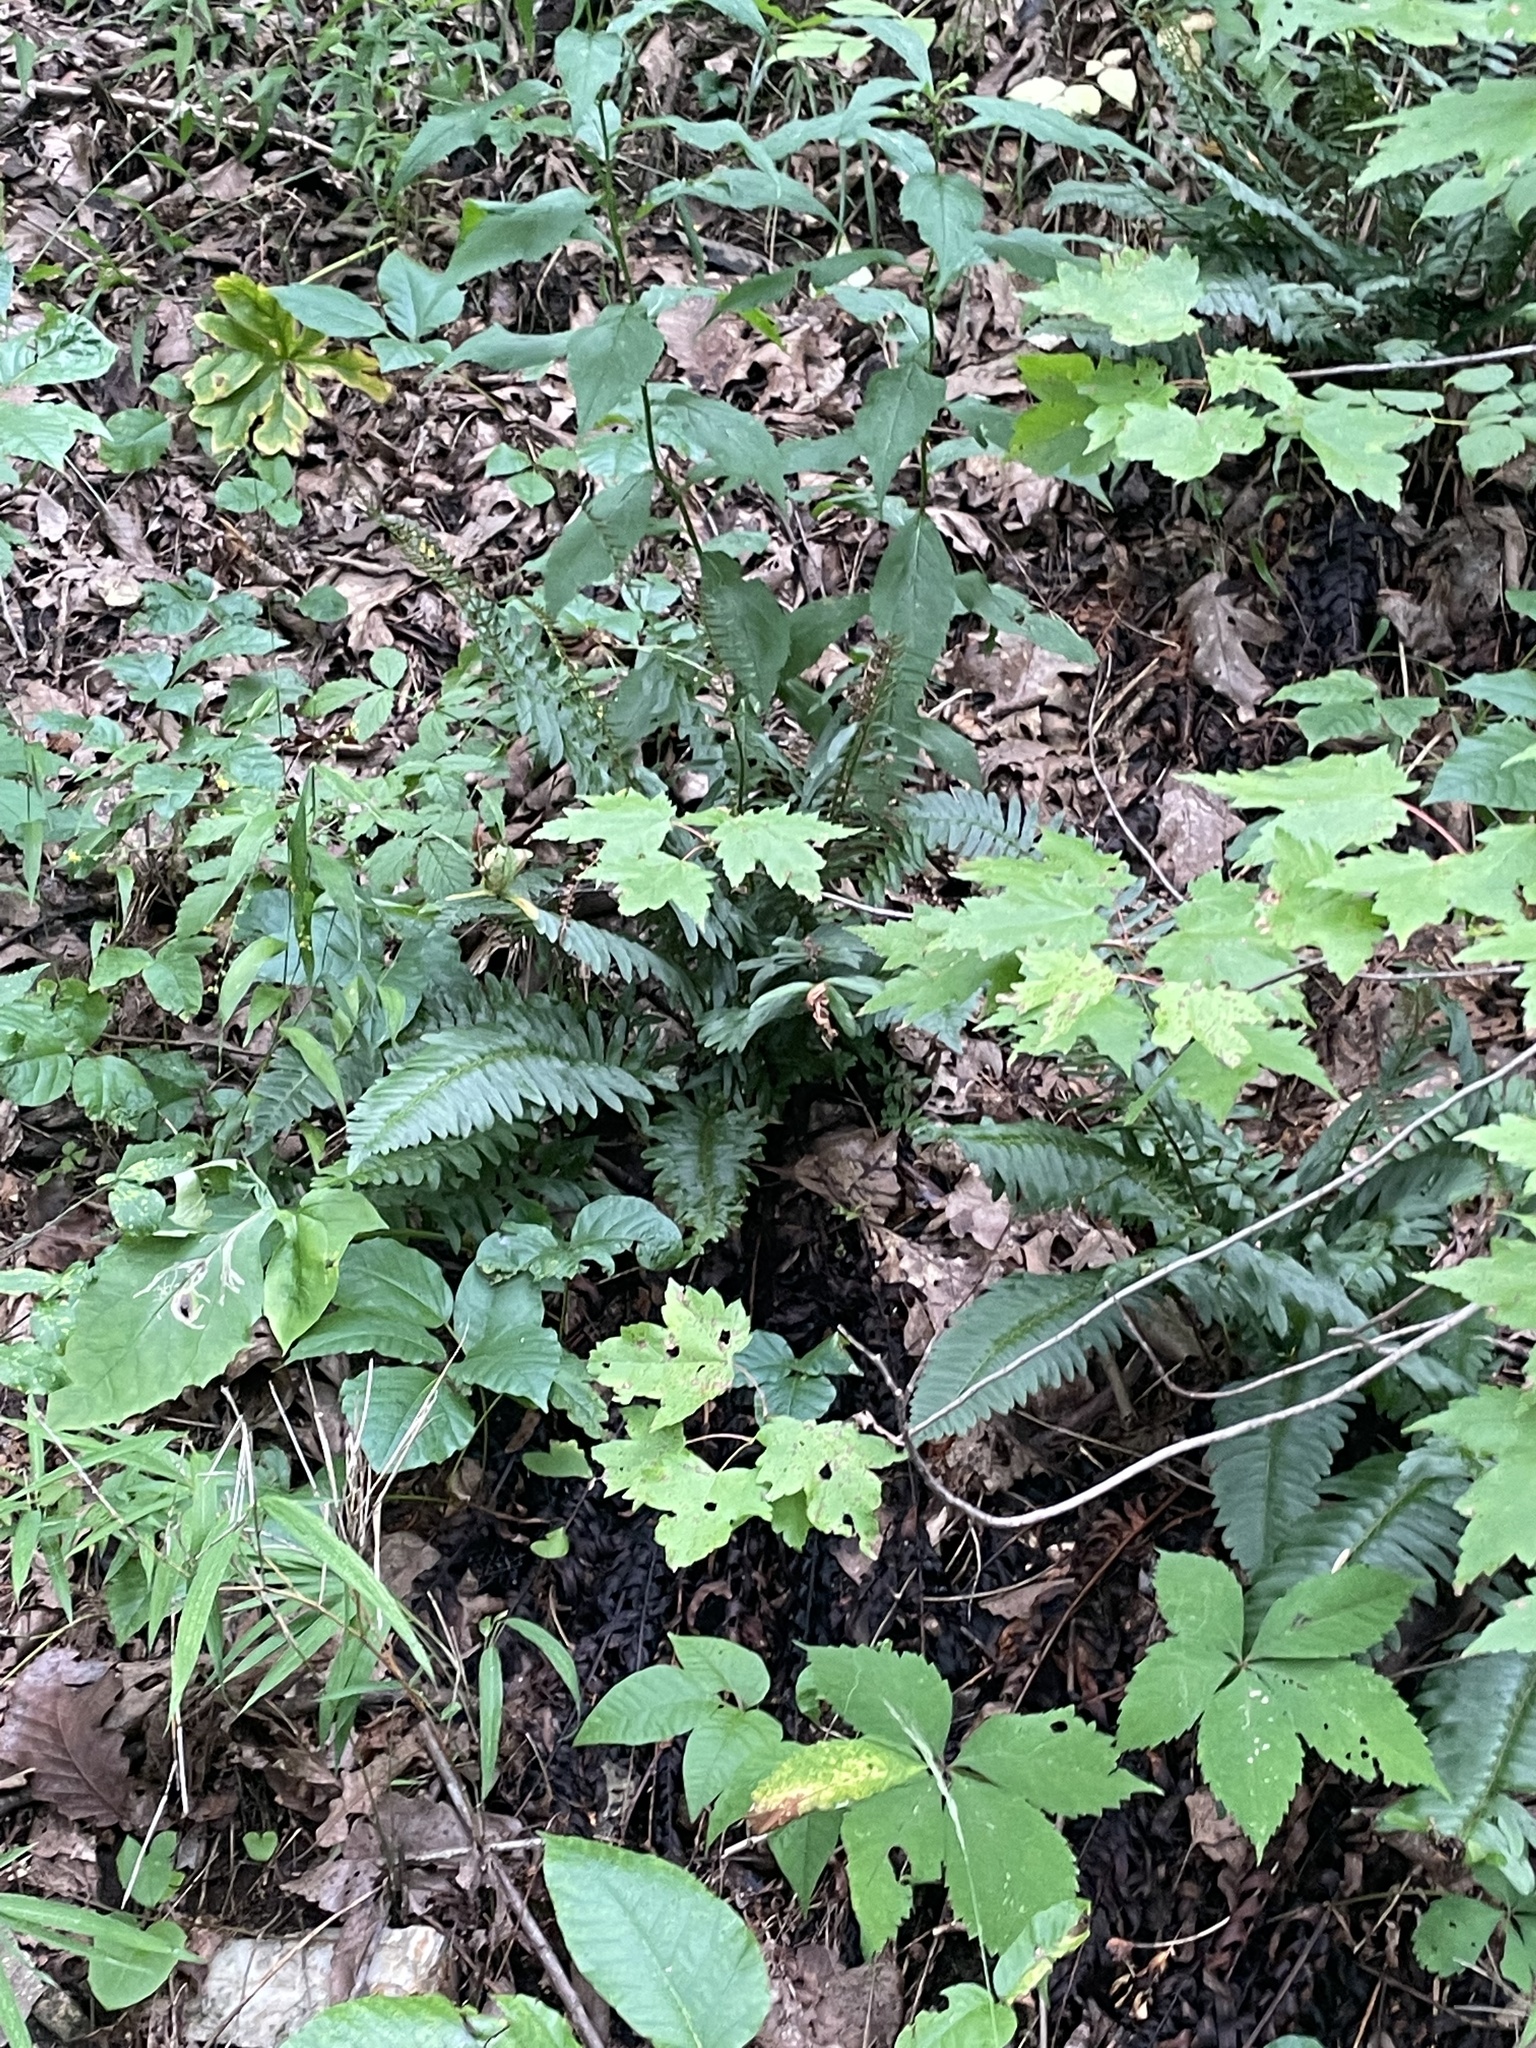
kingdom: Plantae
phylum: Tracheophyta
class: Polypodiopsida
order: Polypodiales
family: Dryopteridaceae
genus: Polystichum
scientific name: Polystichum acrostichoides
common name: Christmas fern
